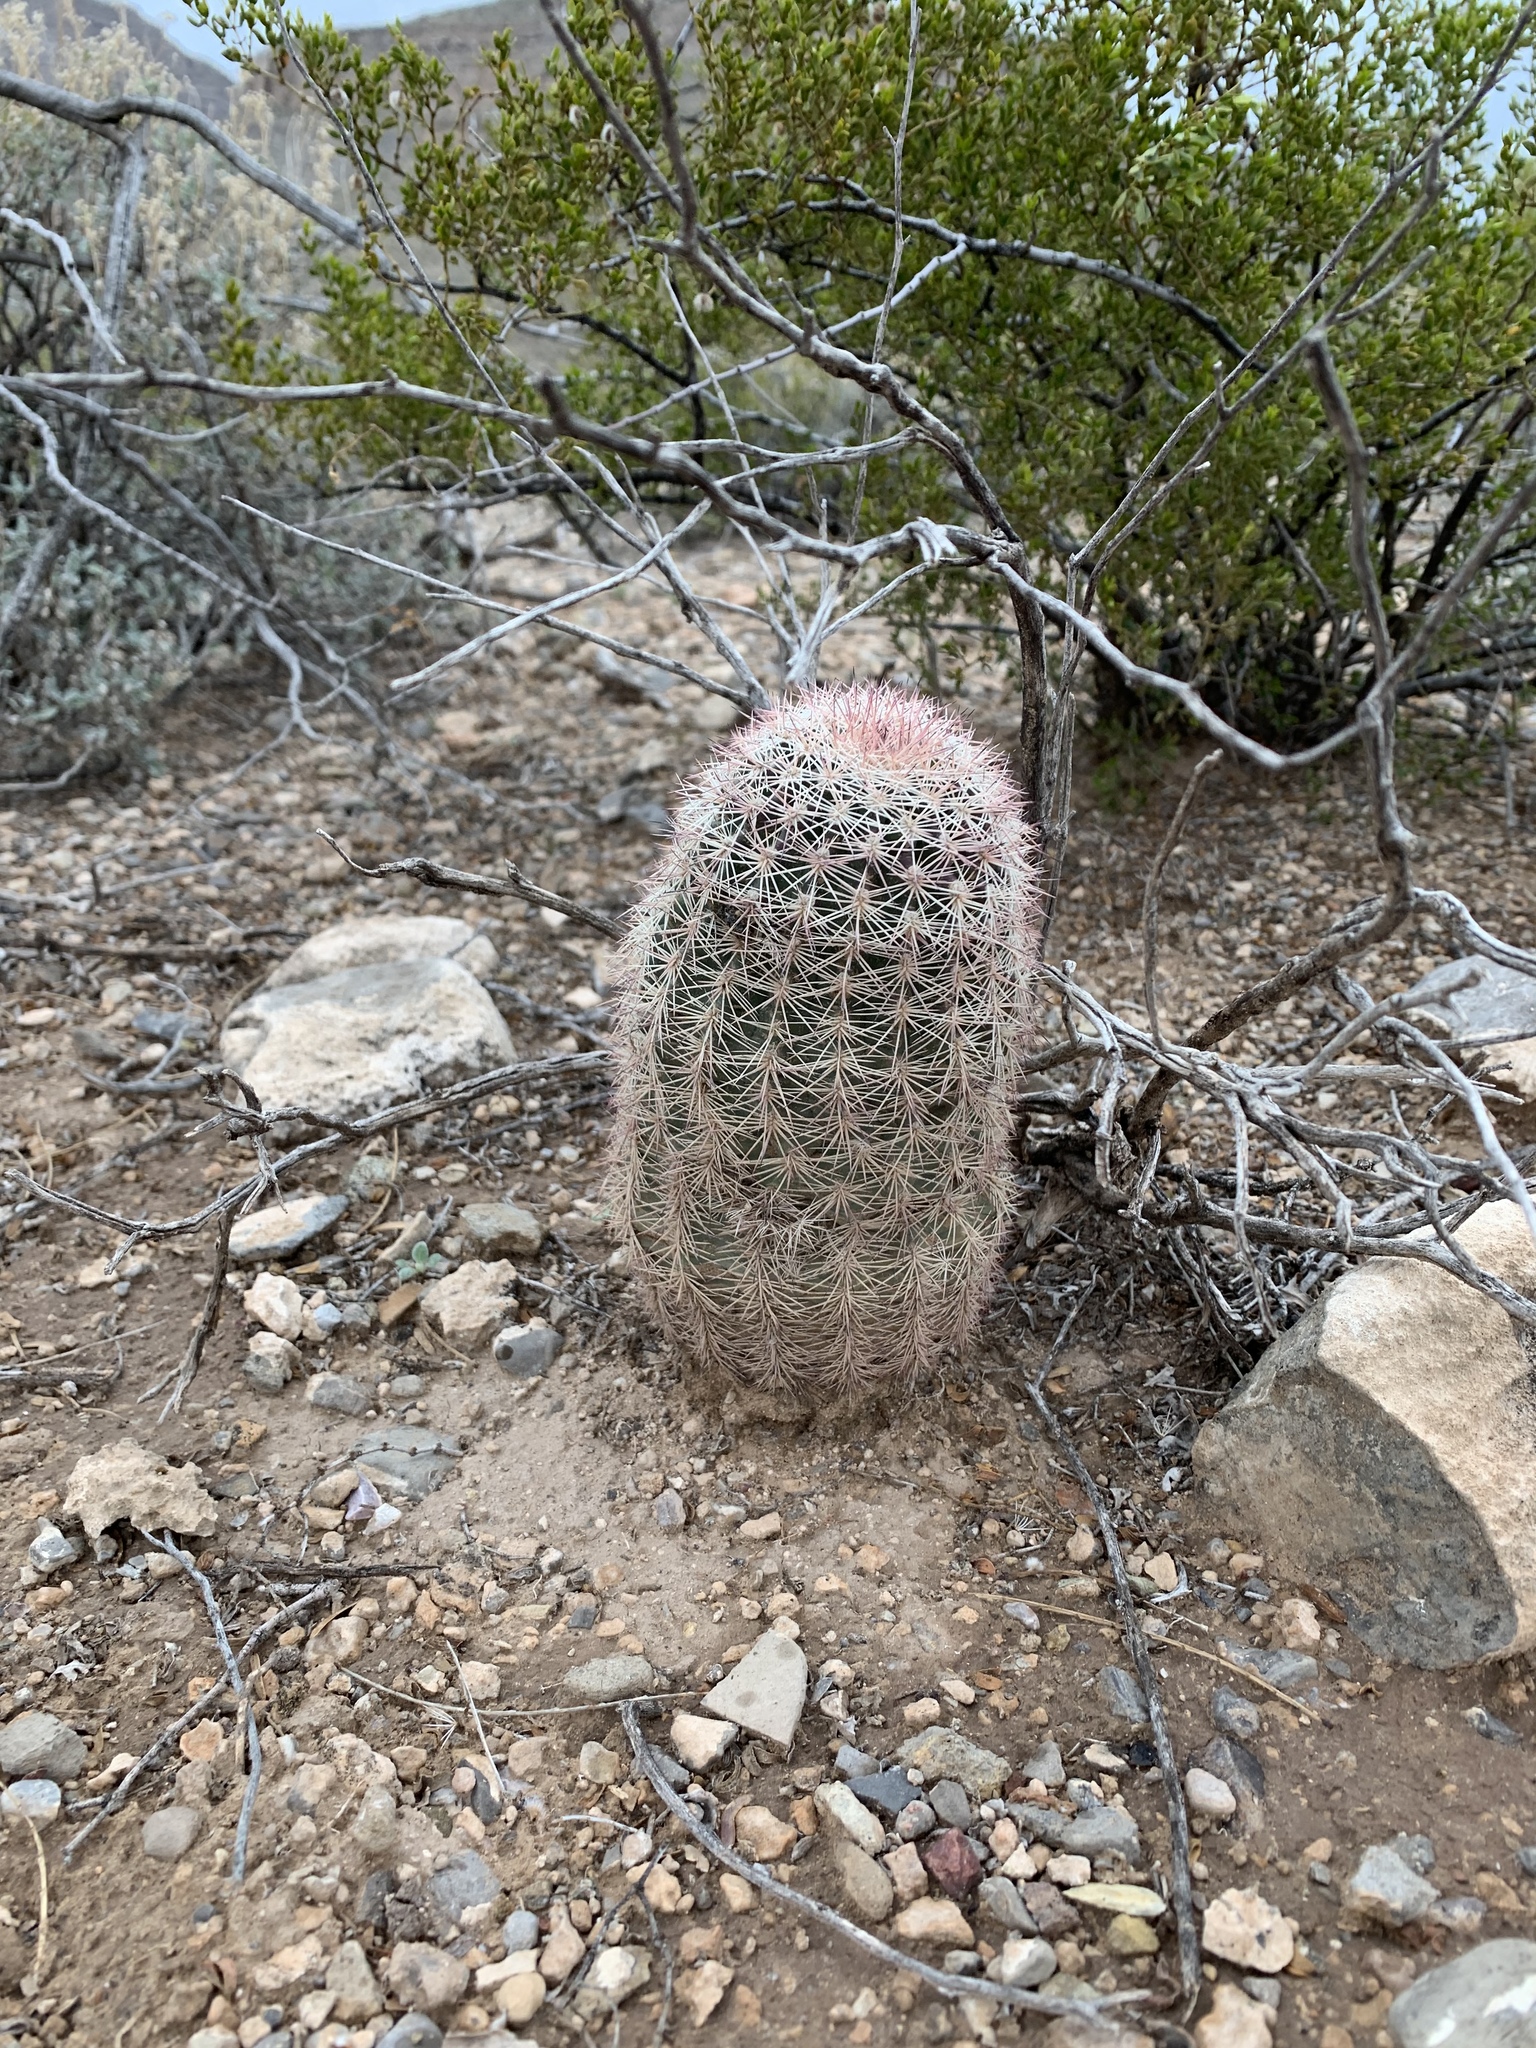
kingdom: Plantae
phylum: Tracheophyta
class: Magnoliopsida
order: Caryophyllales
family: Cactaceae
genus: Echinocereus
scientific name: Echinocereus dasyacanthus
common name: Spiny hedgehog cactus
